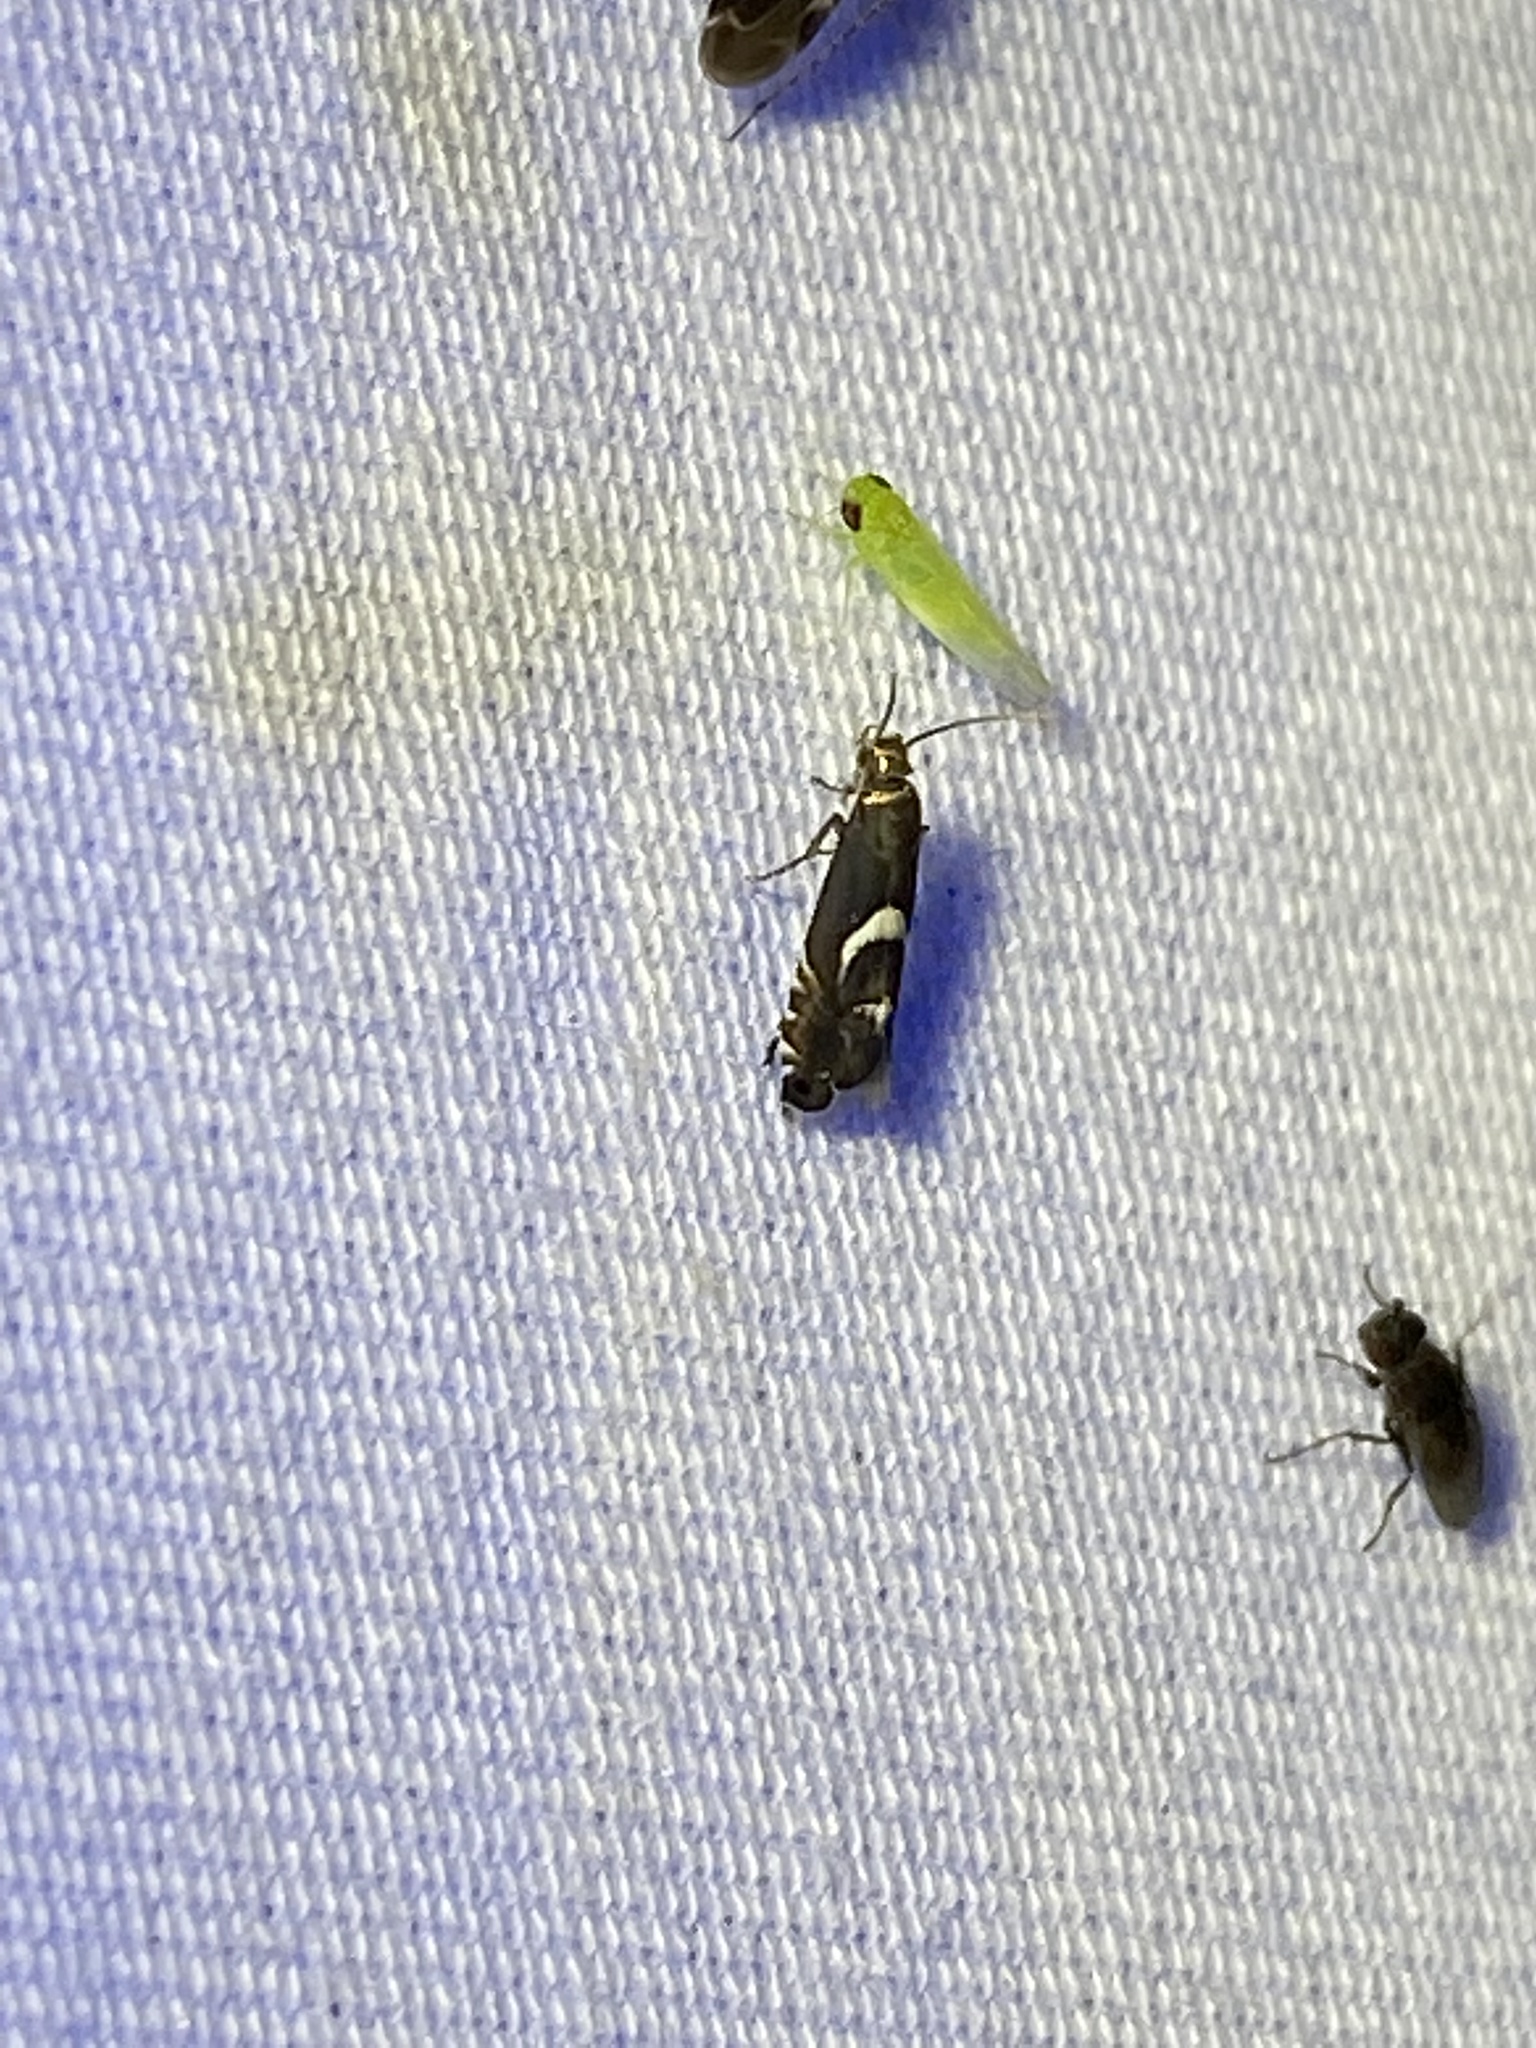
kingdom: Animalia
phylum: Arthropoda
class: Insecta
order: Lepidoptera
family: Glyphipterigidae
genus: Glyphipterix
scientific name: Glyphipterix Diploschizia impigritella
